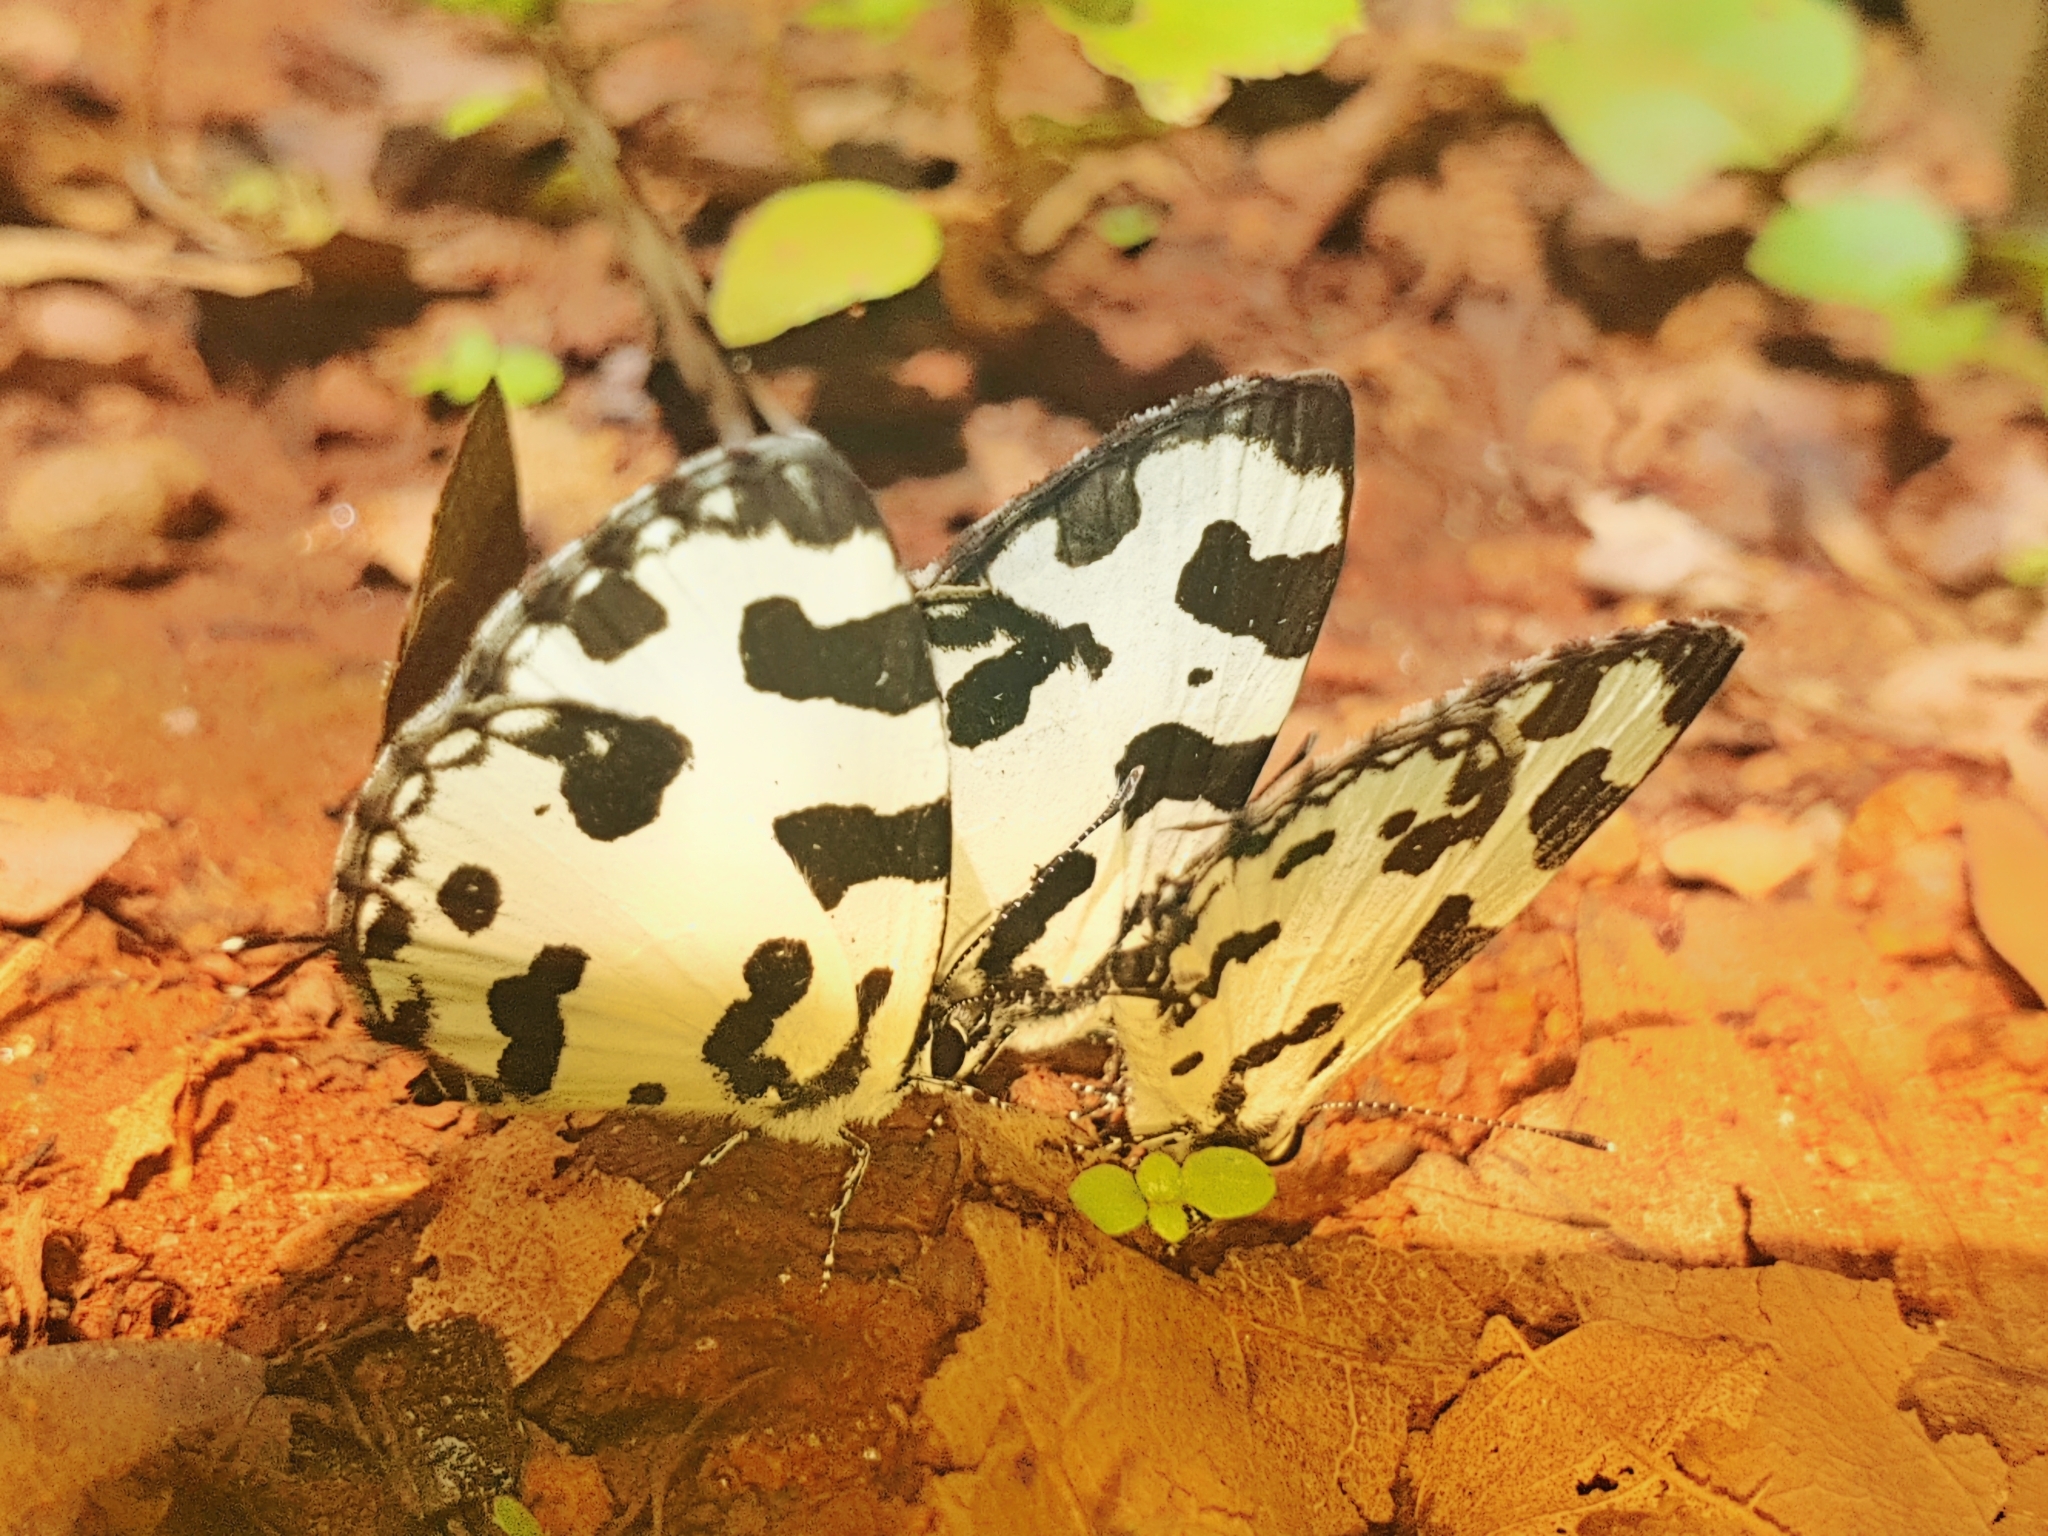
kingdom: Animalia
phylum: Arthropoda
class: Insecta
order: Lepidoptera
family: Lycaenidae
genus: Caleta
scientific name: Caleta decidia
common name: Angled pierrot
